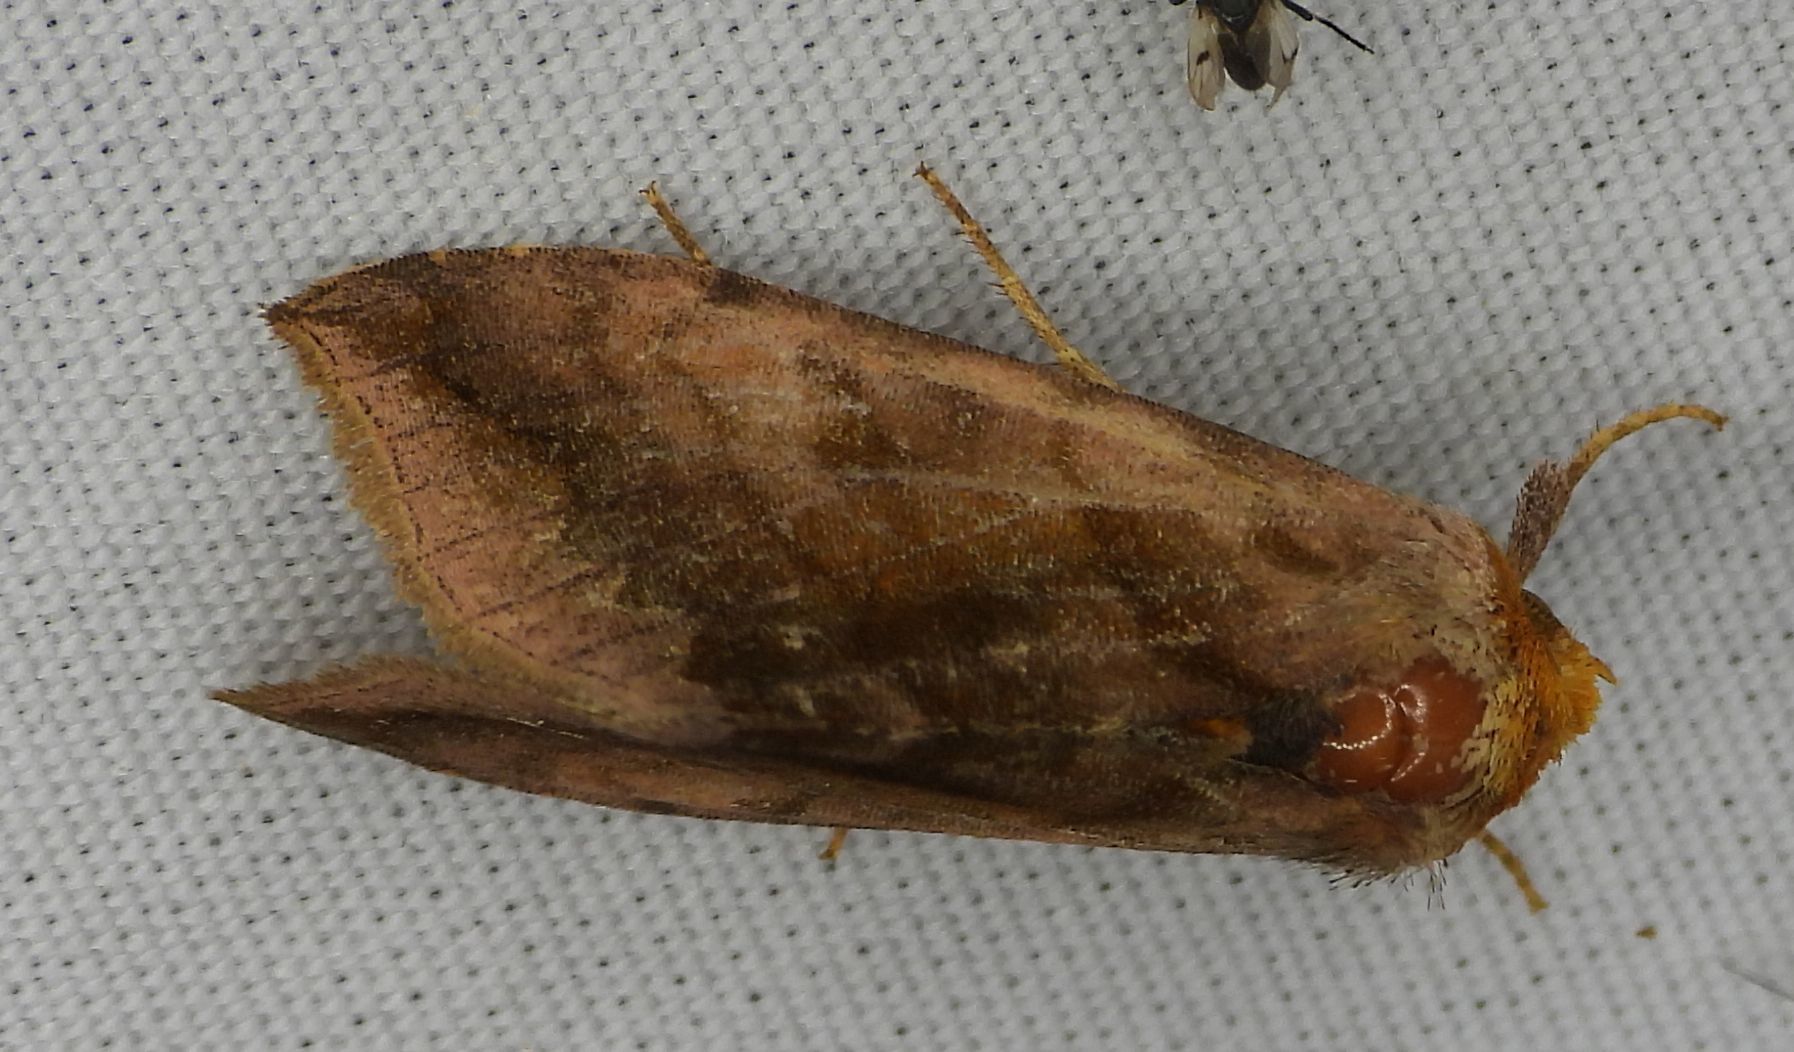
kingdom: Animalia
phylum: Arthropoda
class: Insecta
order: Lepidoptera
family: Noctuidae
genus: Allagrapha
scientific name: Allagrapha aerea
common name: Unspotted looper moth
